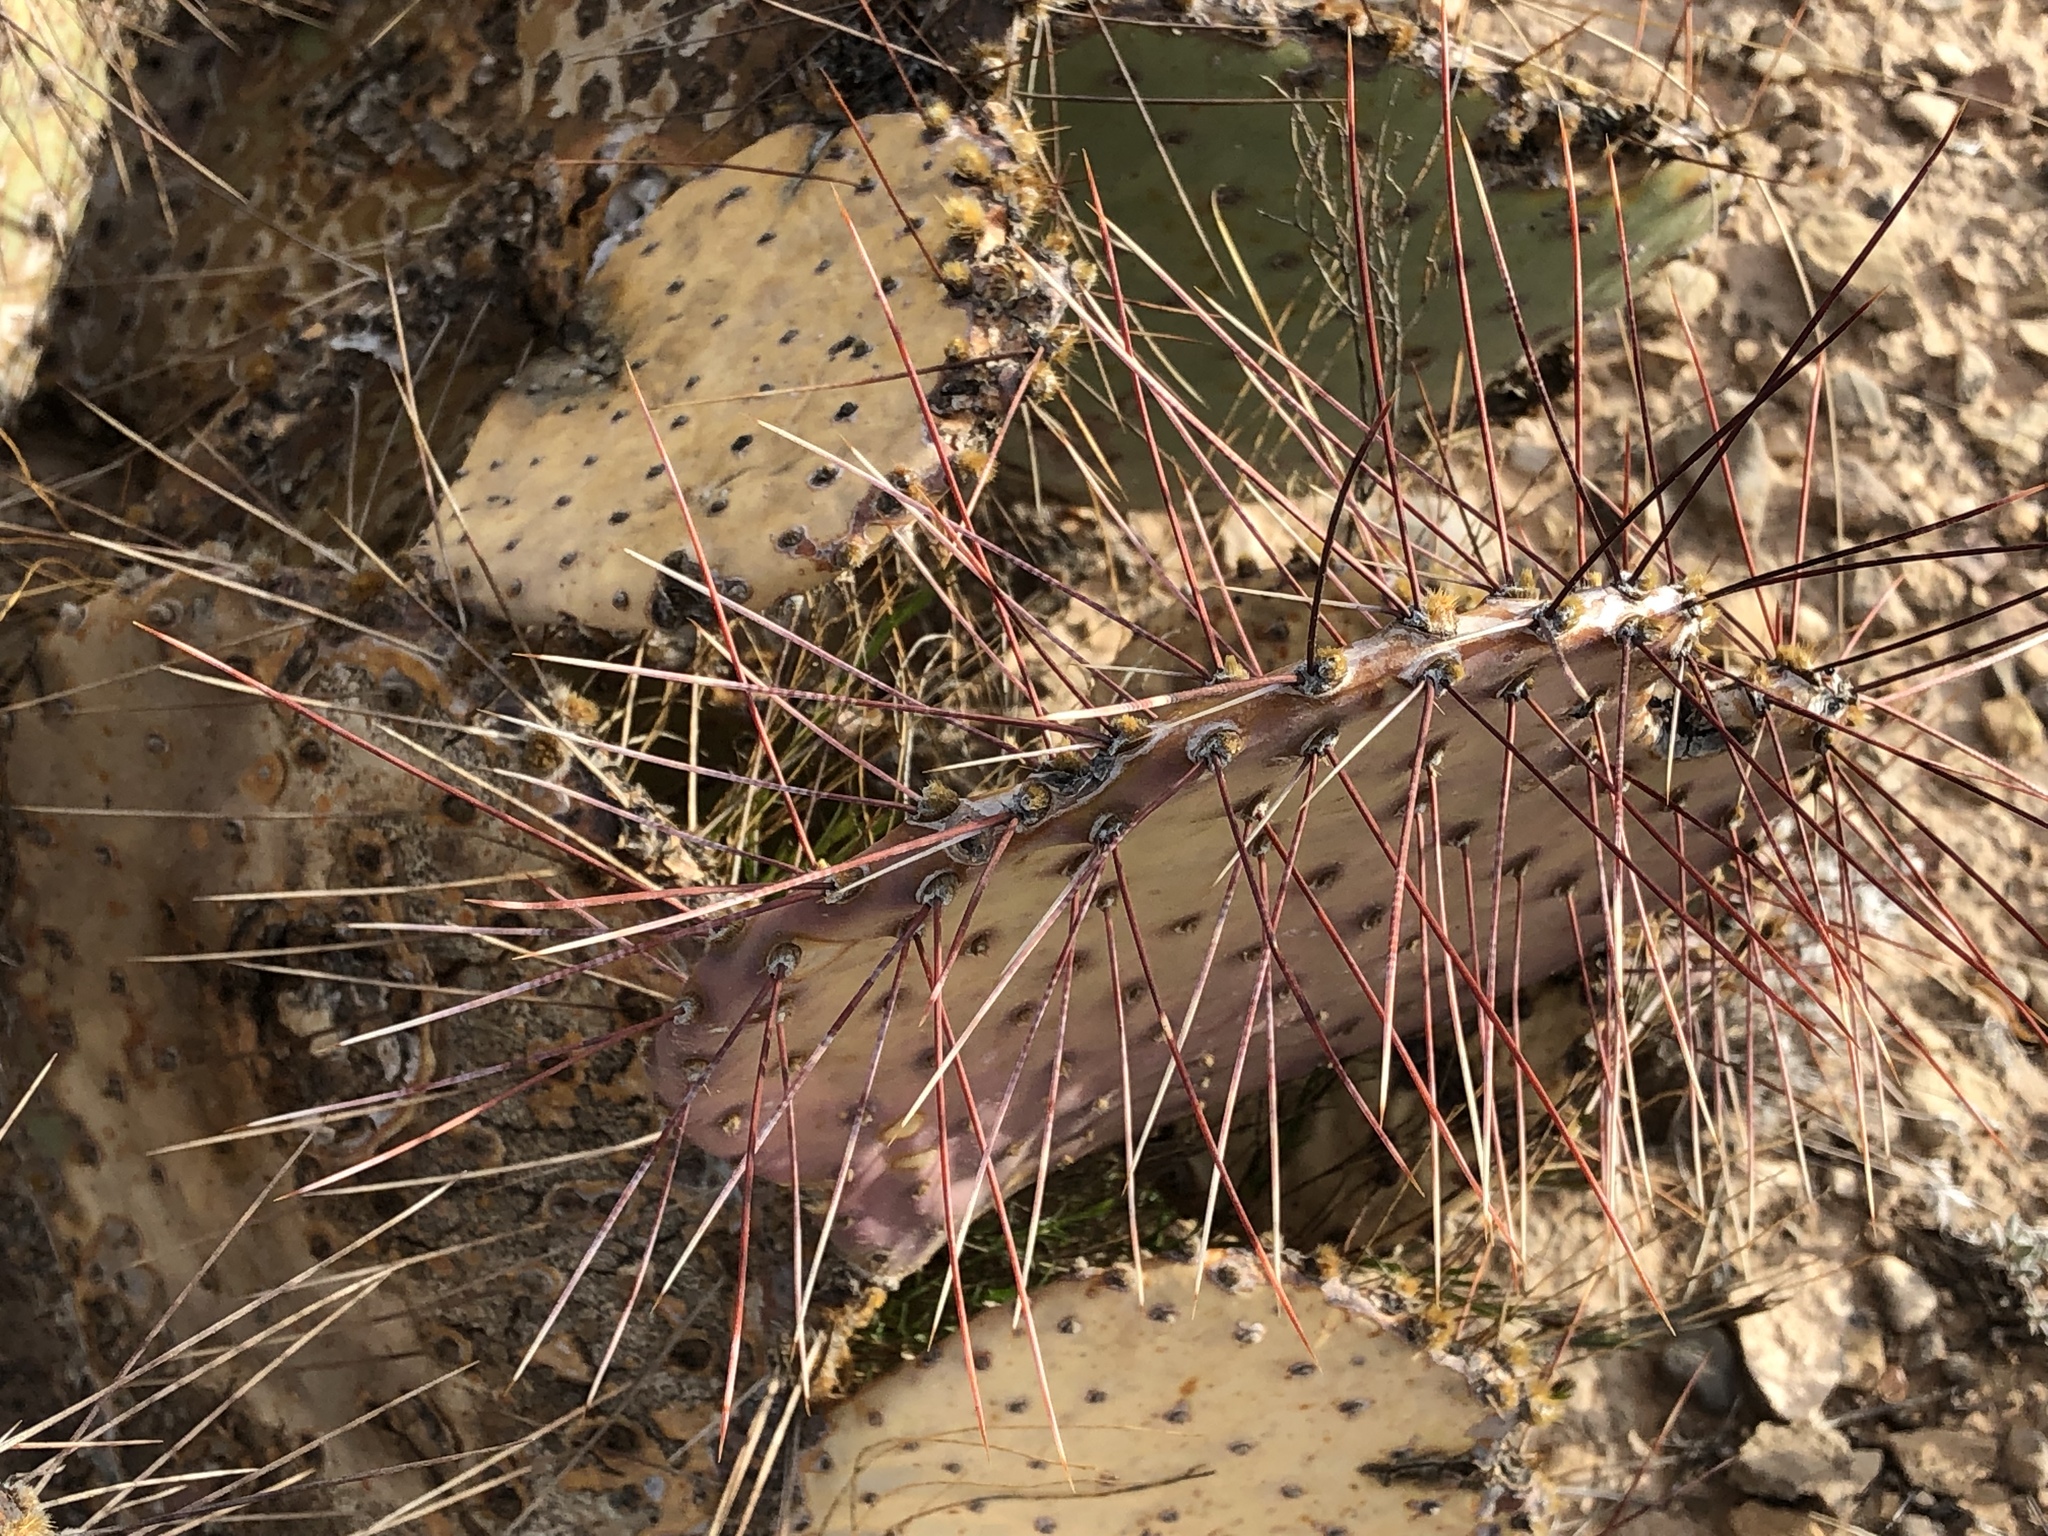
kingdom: Plantae
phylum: Tracheophyta
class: Magnoliopsida
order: Caryophyllales
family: Cactaceae
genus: Opuntia
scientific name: Opuntia macrocentra
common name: Purple prickly-pear
